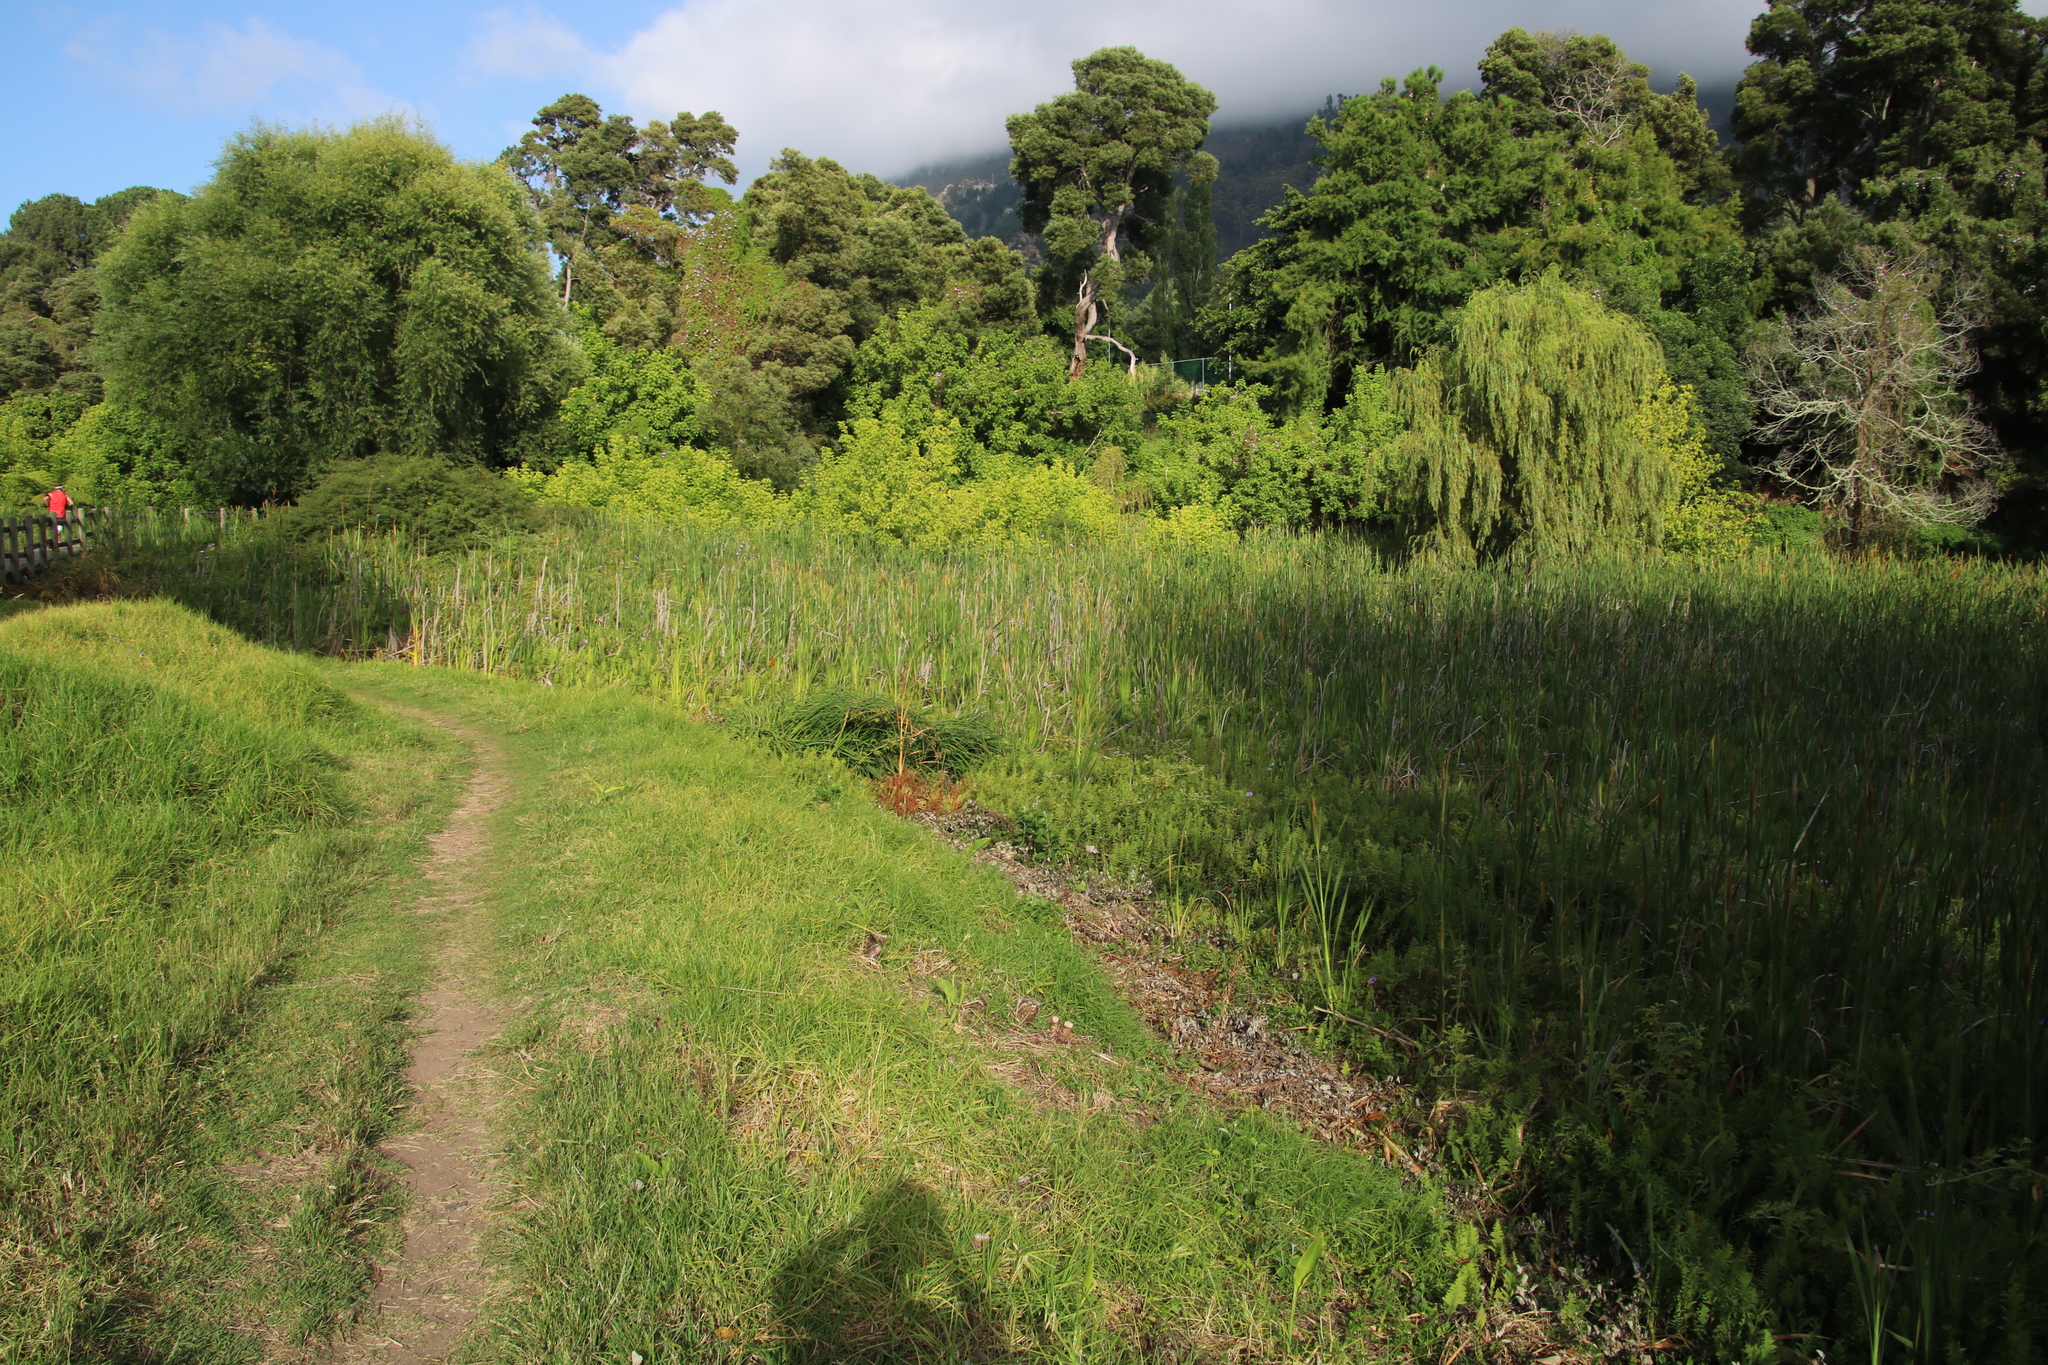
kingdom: Plantae
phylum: Tracheophyta
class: Magnoliopsida
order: Sapindales
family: Sapindaceae
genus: Acer
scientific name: Acer negundo
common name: Ashleaf maple
